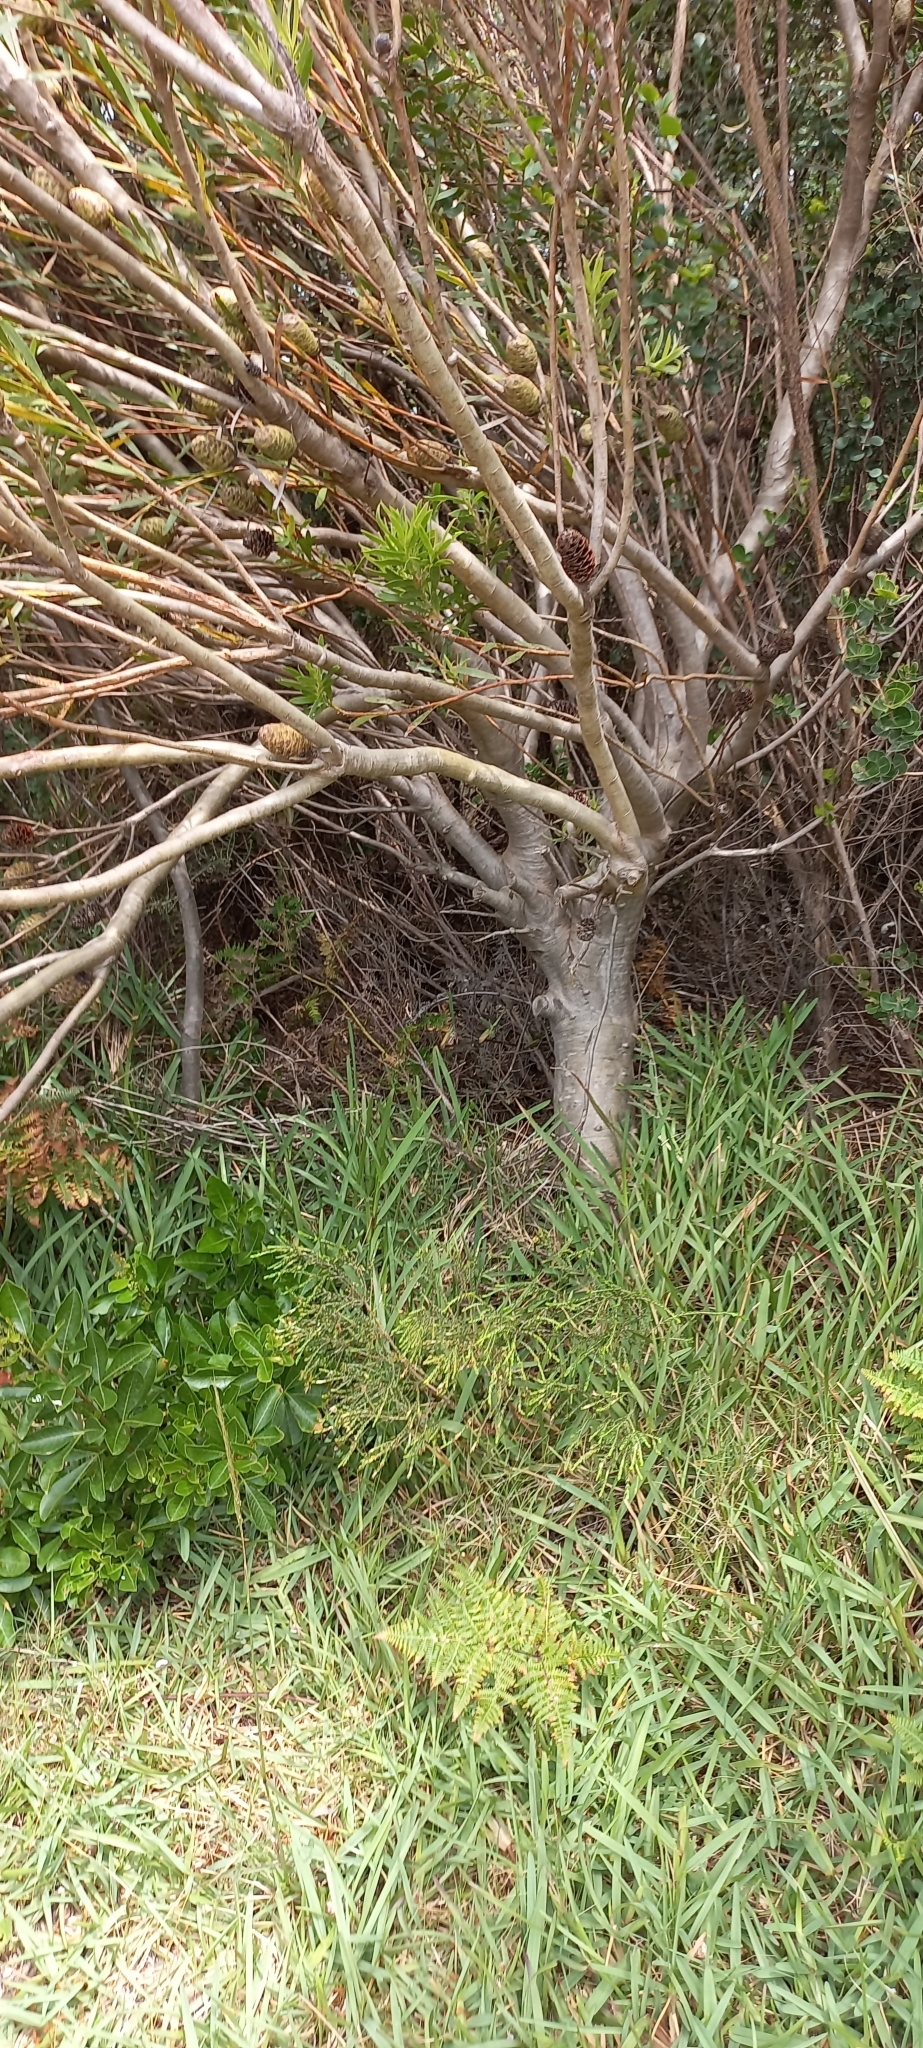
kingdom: Plantae
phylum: Tracheophyta
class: Magnoliopsida
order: Proteales
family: Proteaceae
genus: Leucadendron
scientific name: Leucadendron coniferum
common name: Dune conebush
